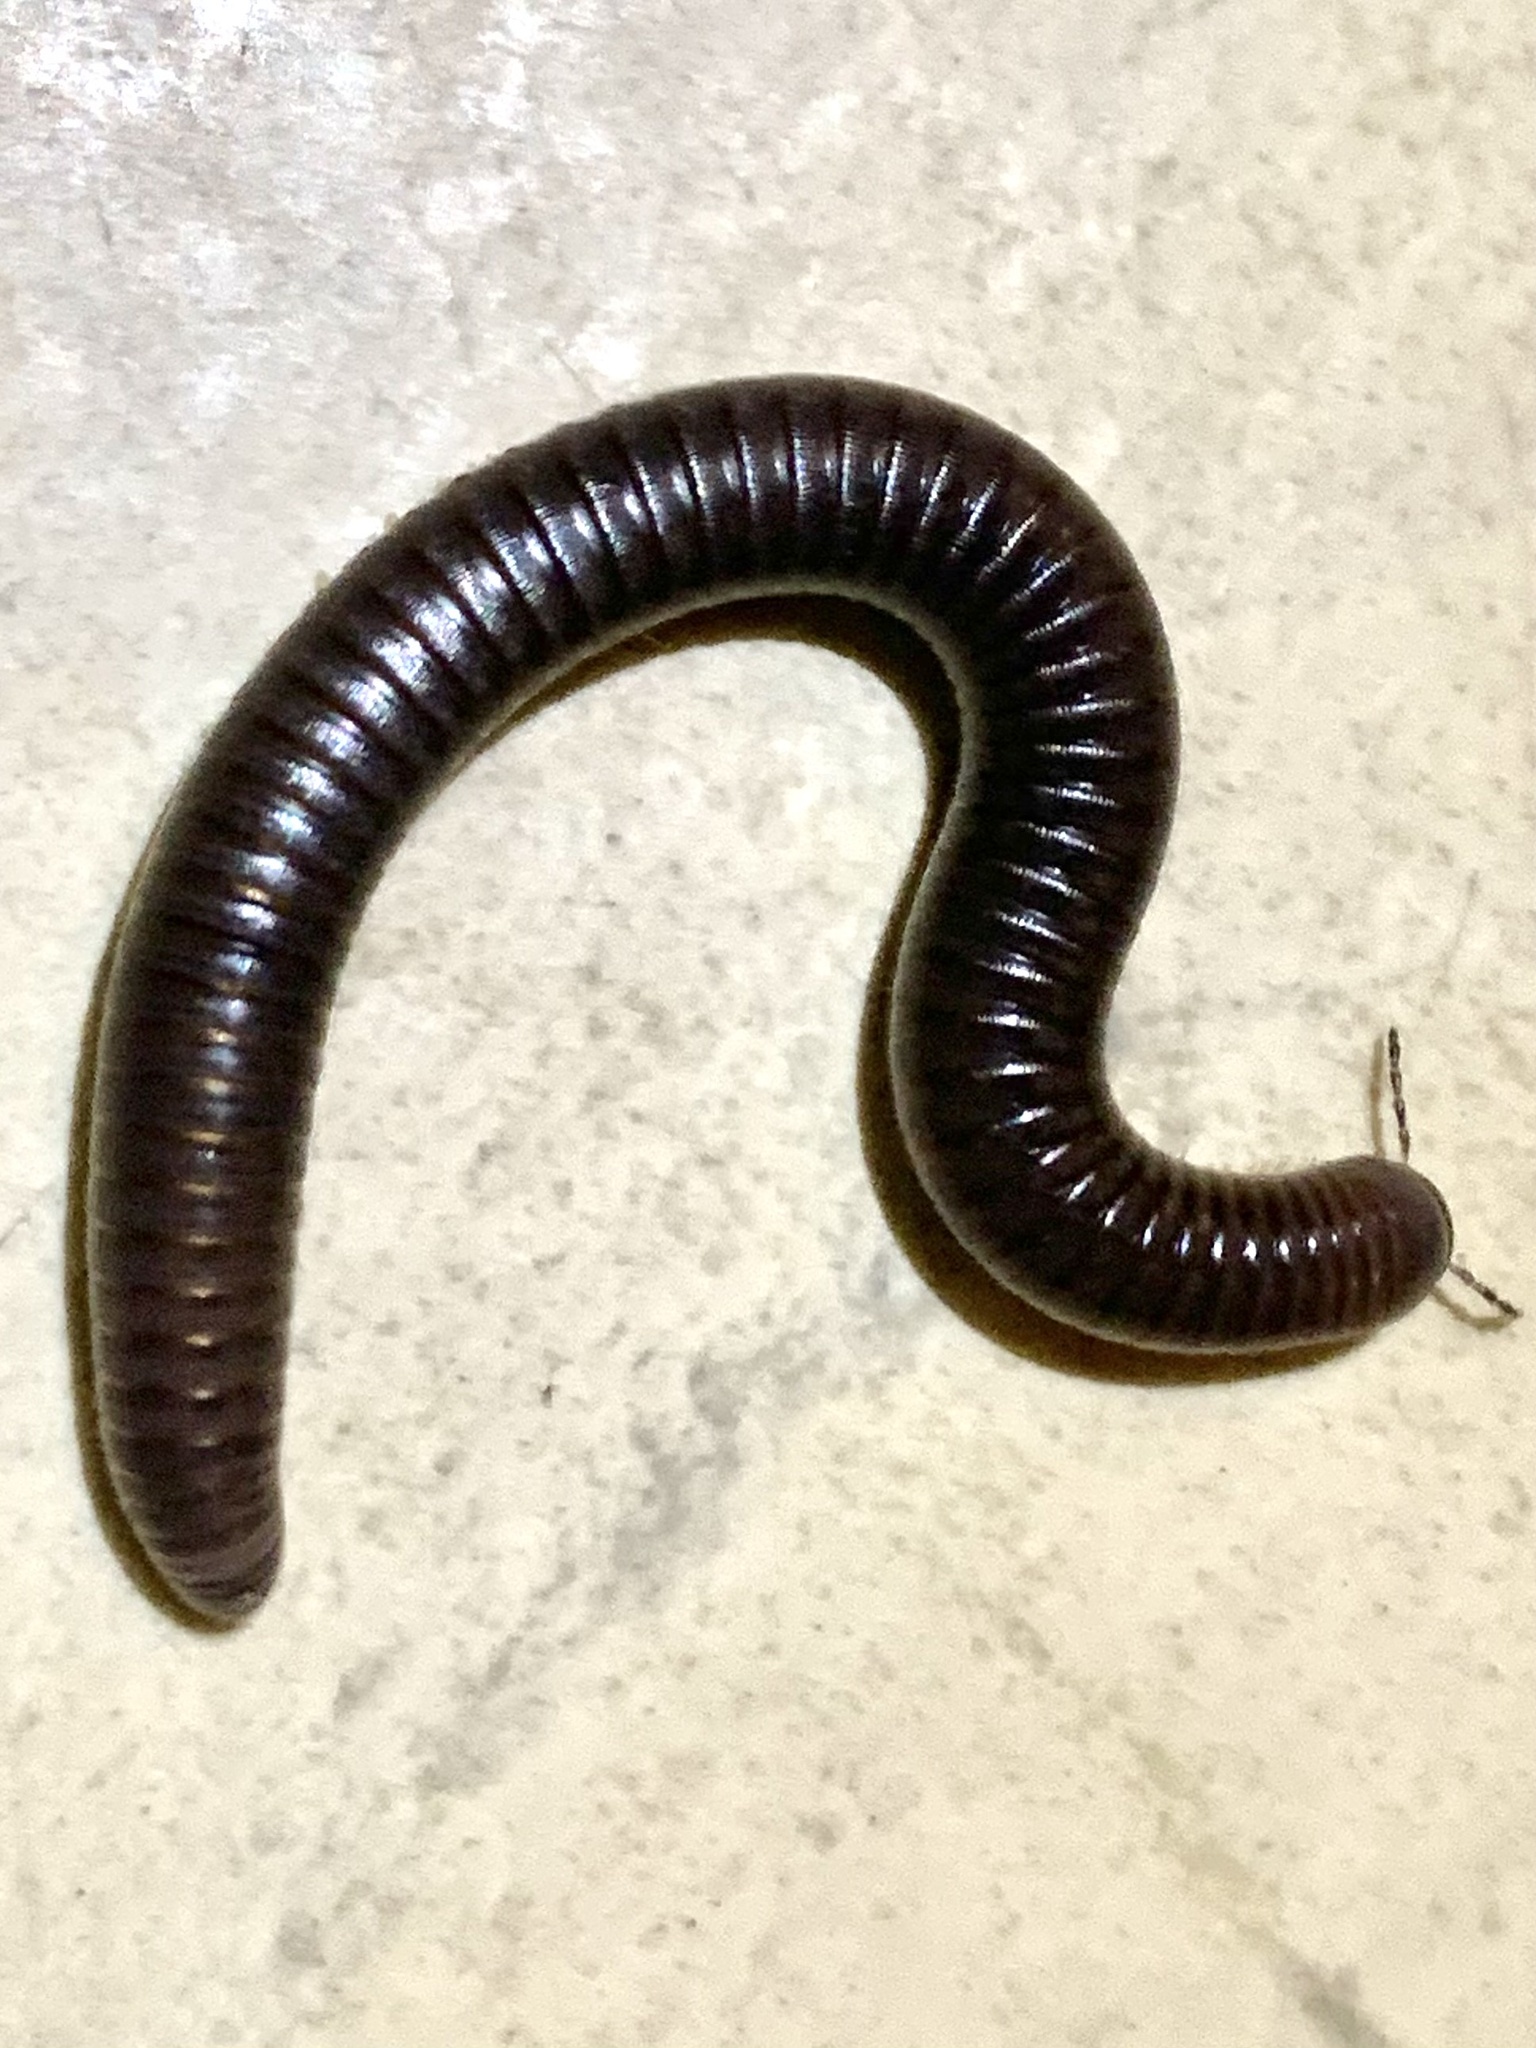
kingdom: Animalia
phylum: Arthropoda
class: Diplopoda
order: Julida
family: Julidae
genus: Pachyiulus
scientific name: Pachyiulus flavipes
